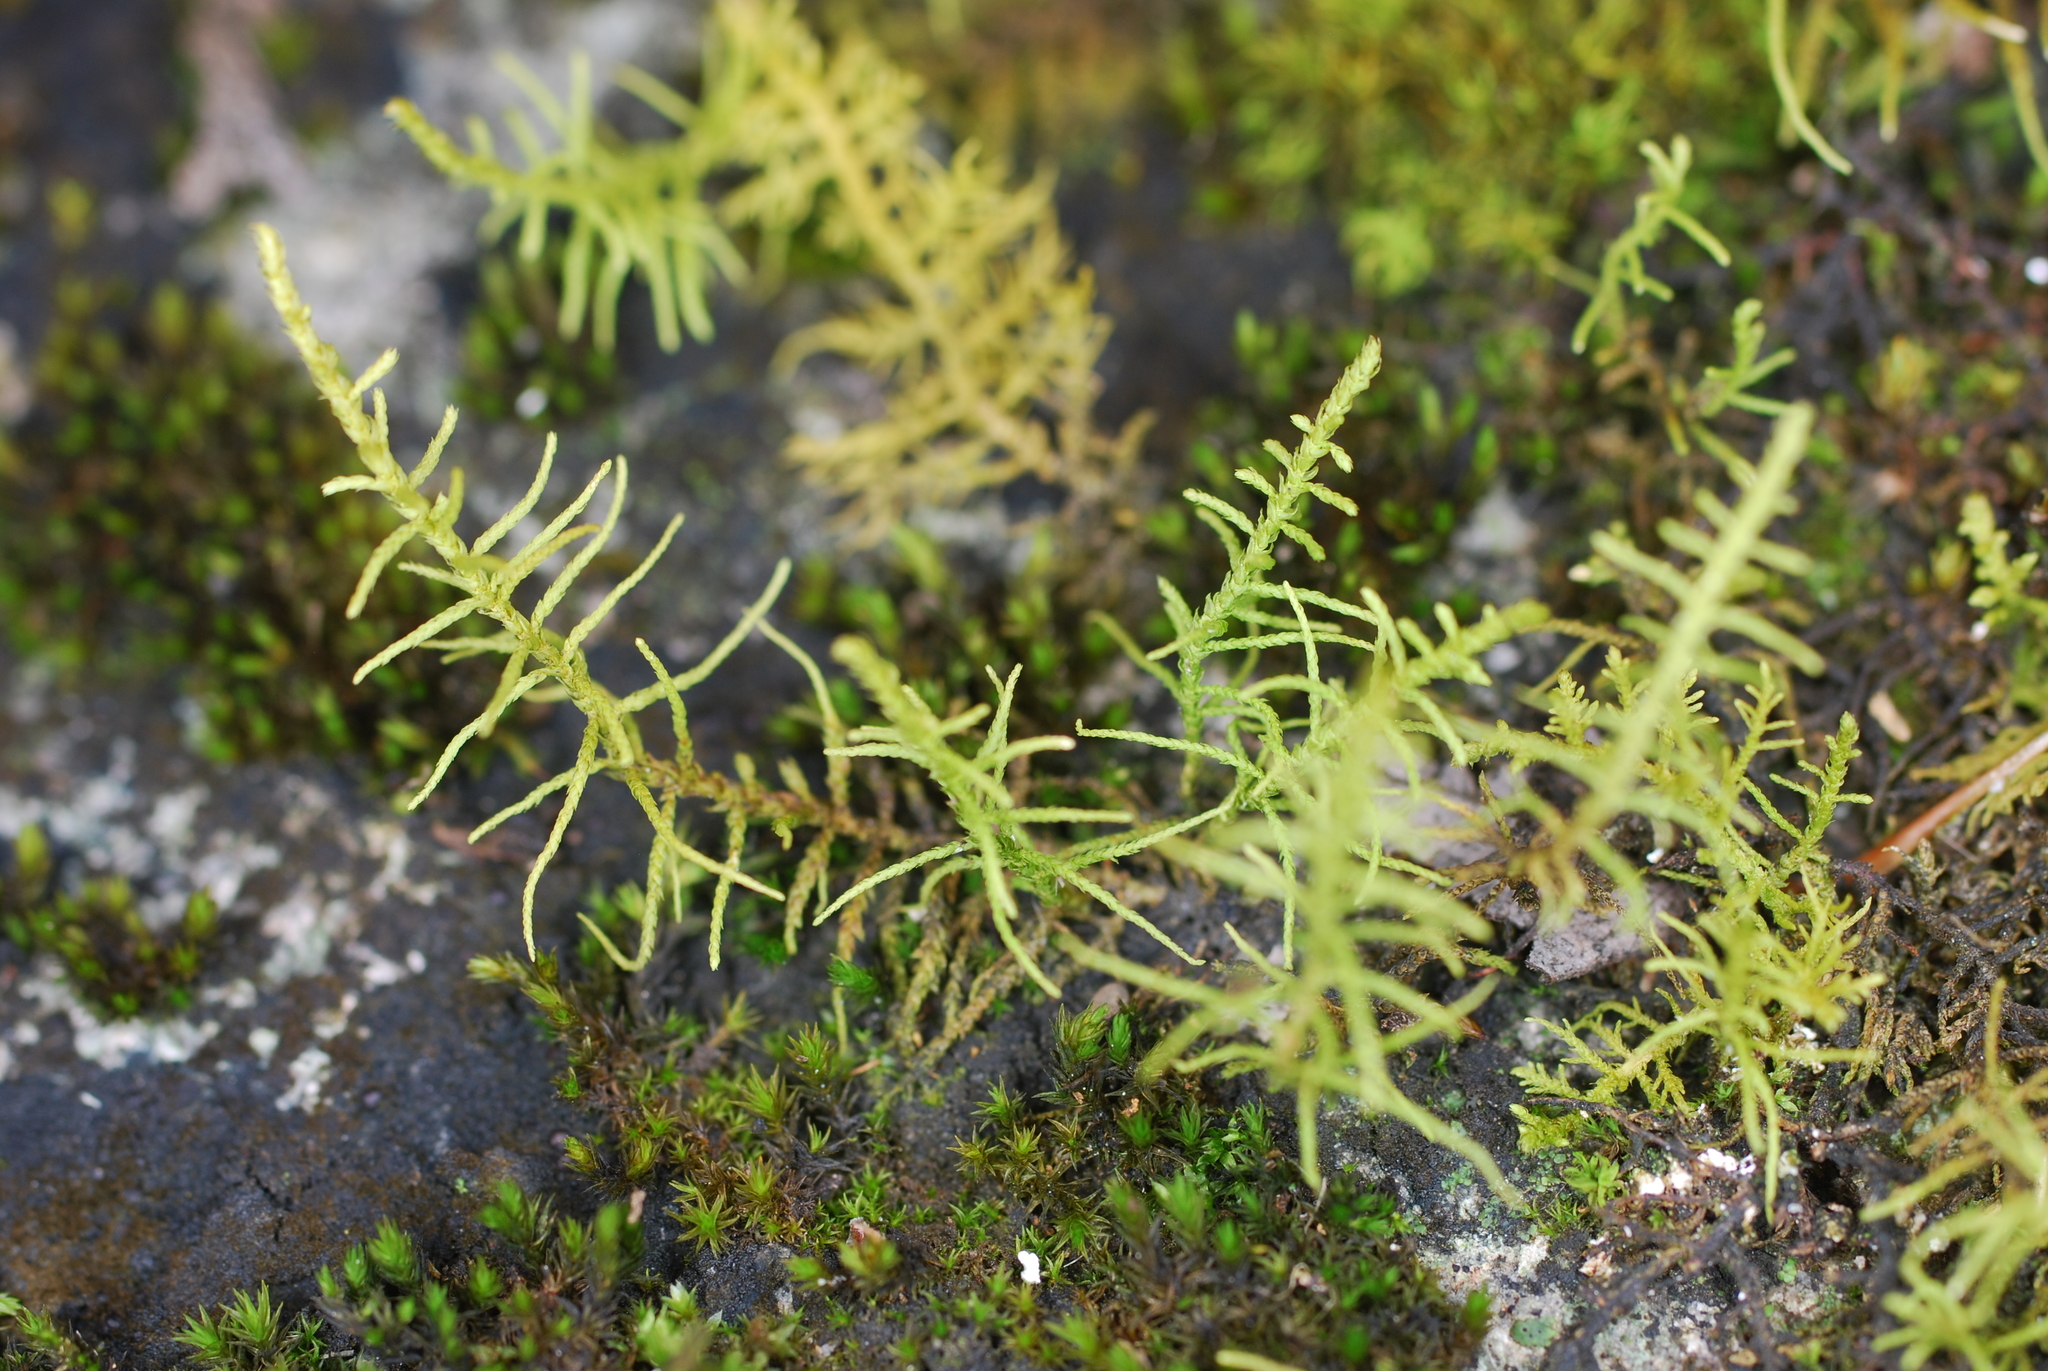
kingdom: Plantae
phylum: Bryophyta
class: Bryopsida
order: Hypnales
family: Thuidiaceae
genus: Abietinella
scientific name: Abietinella abietina
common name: Wiry fern moss
